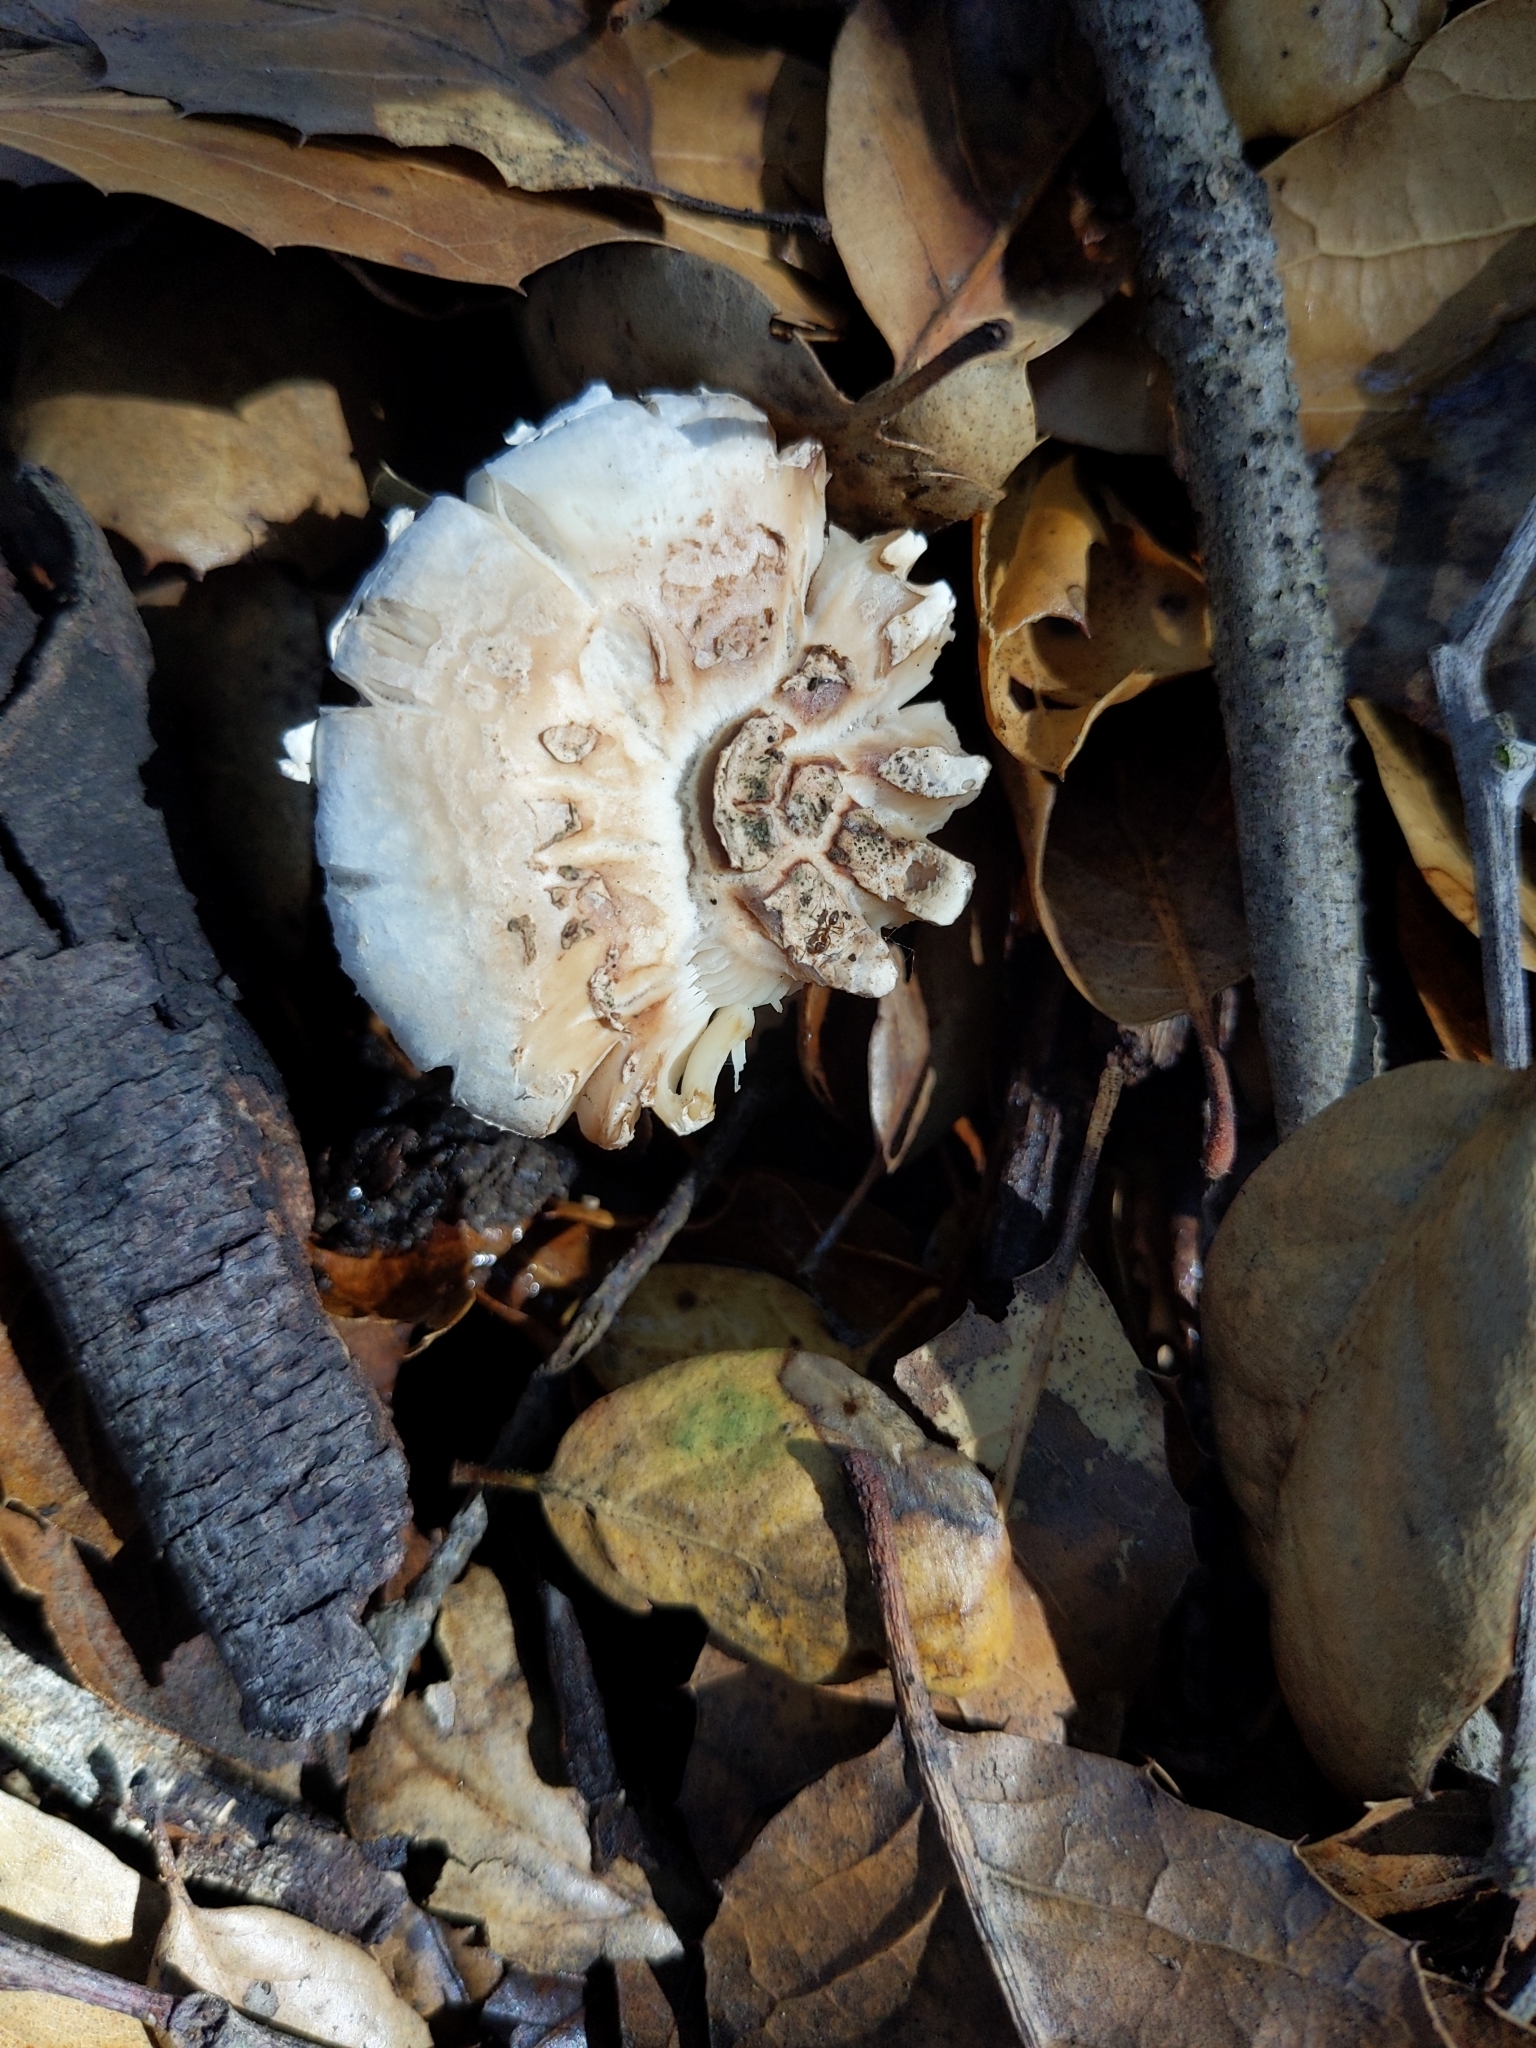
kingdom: Fungi
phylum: Basidiomycota
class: Agaricomycetes
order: Agaricales
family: Amanitaceae
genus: Amanita
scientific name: Amanita magniverrucata
